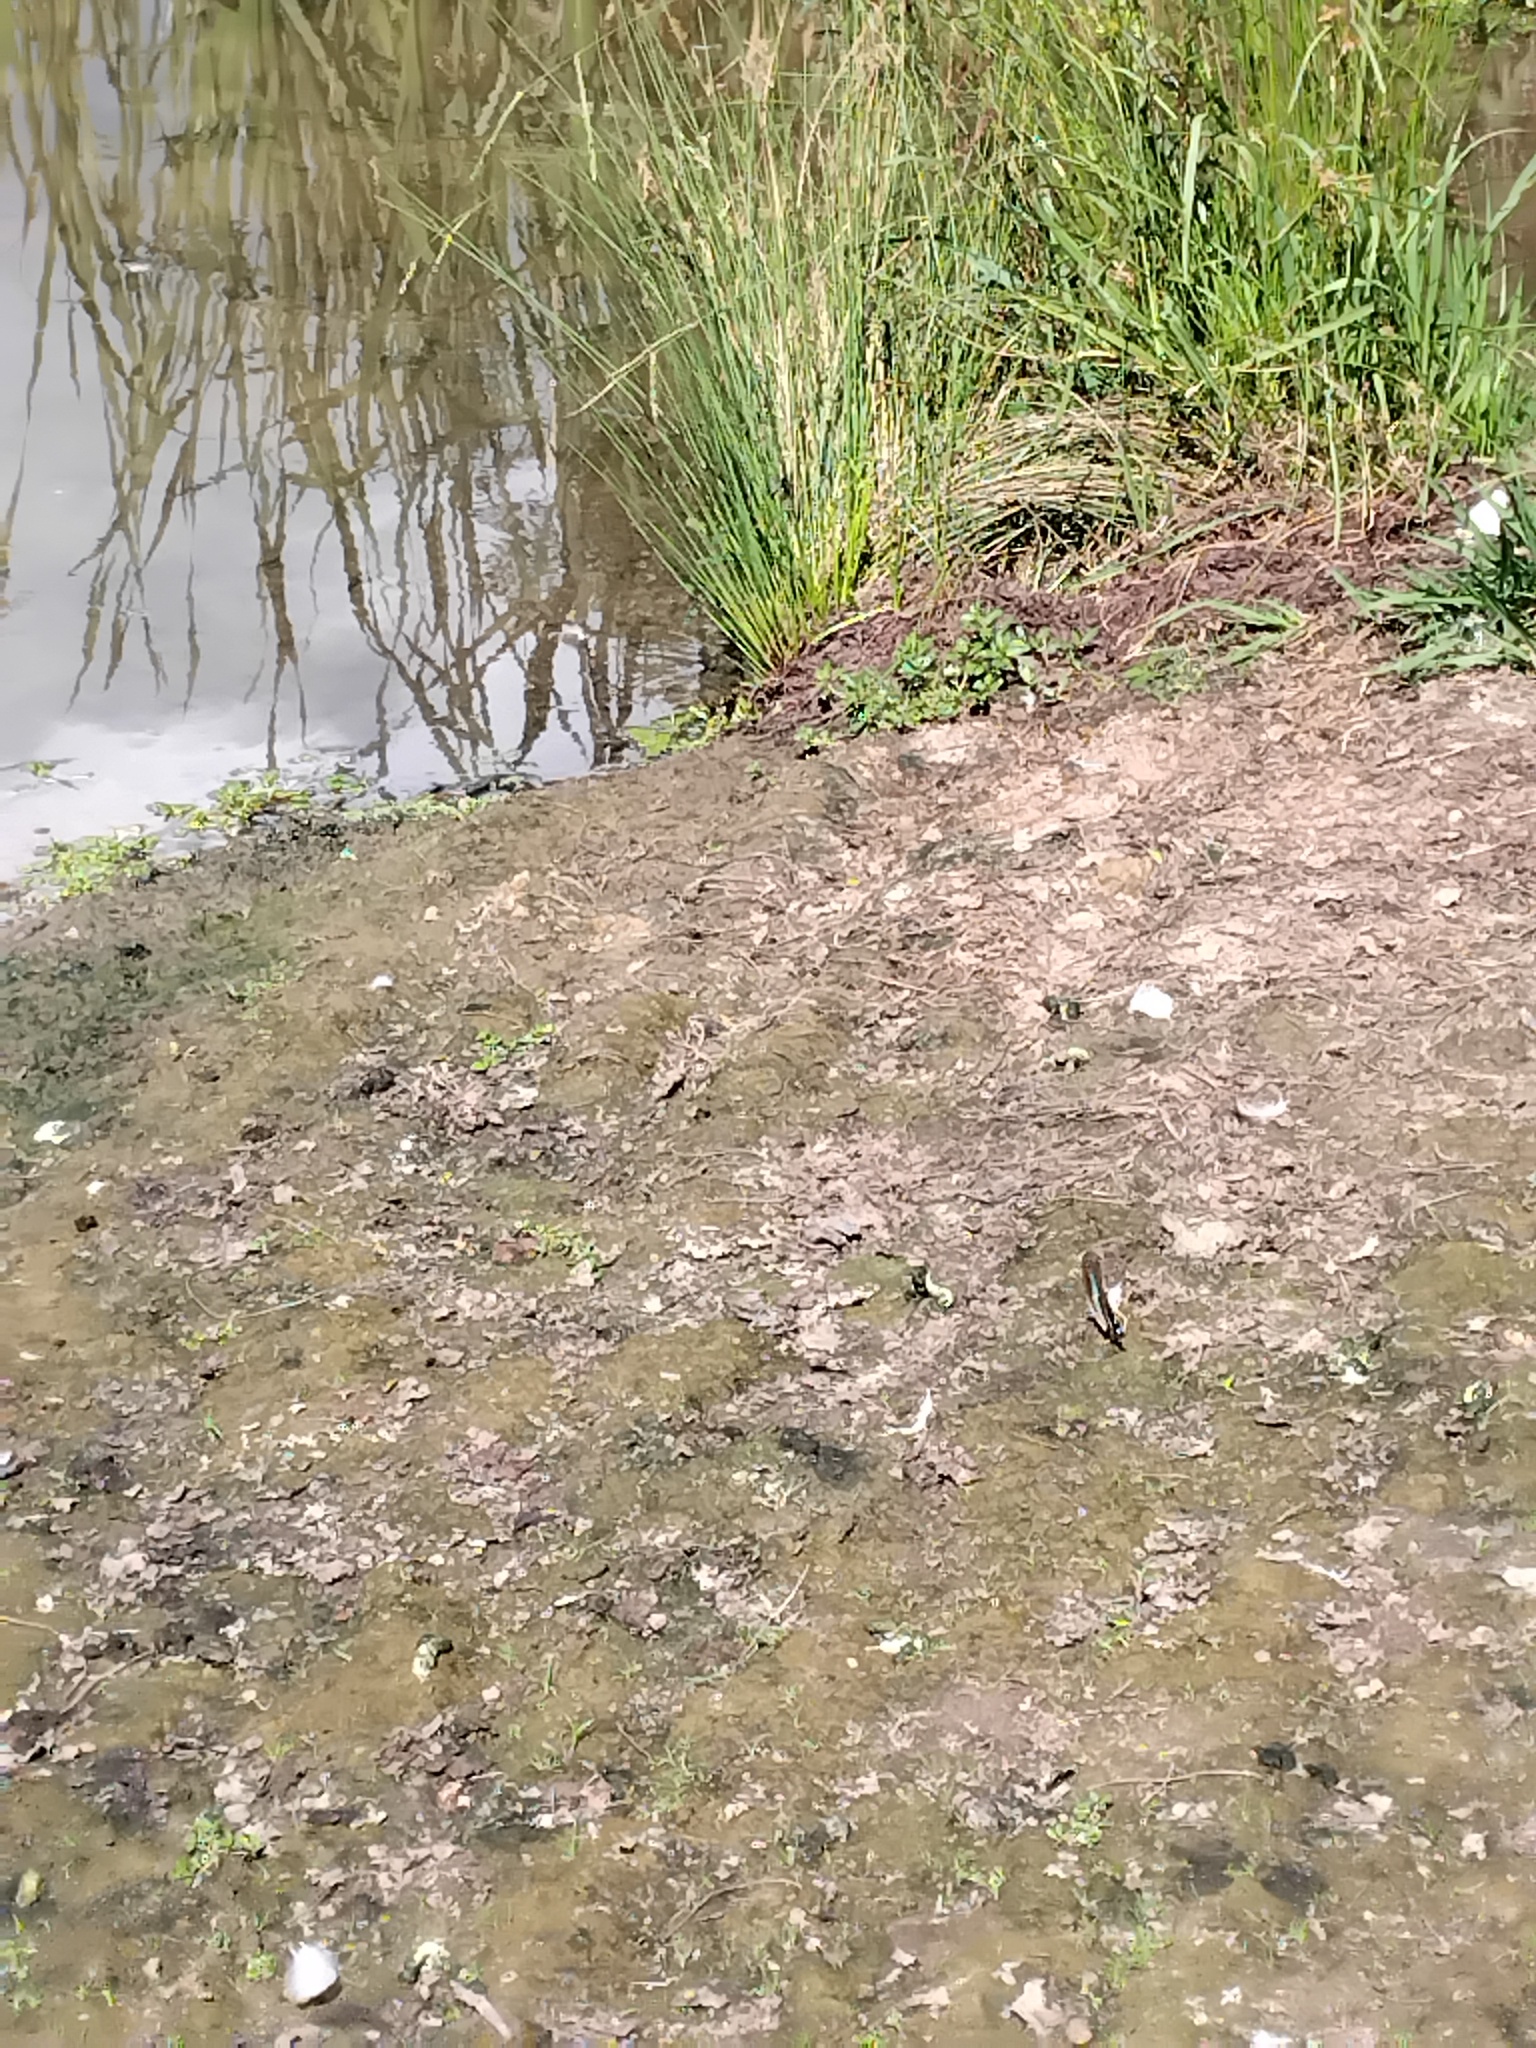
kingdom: Animalia
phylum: Arthropoda
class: Insecta
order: Lepidoptera
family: Papilionidae
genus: Graphium
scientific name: Graphium
